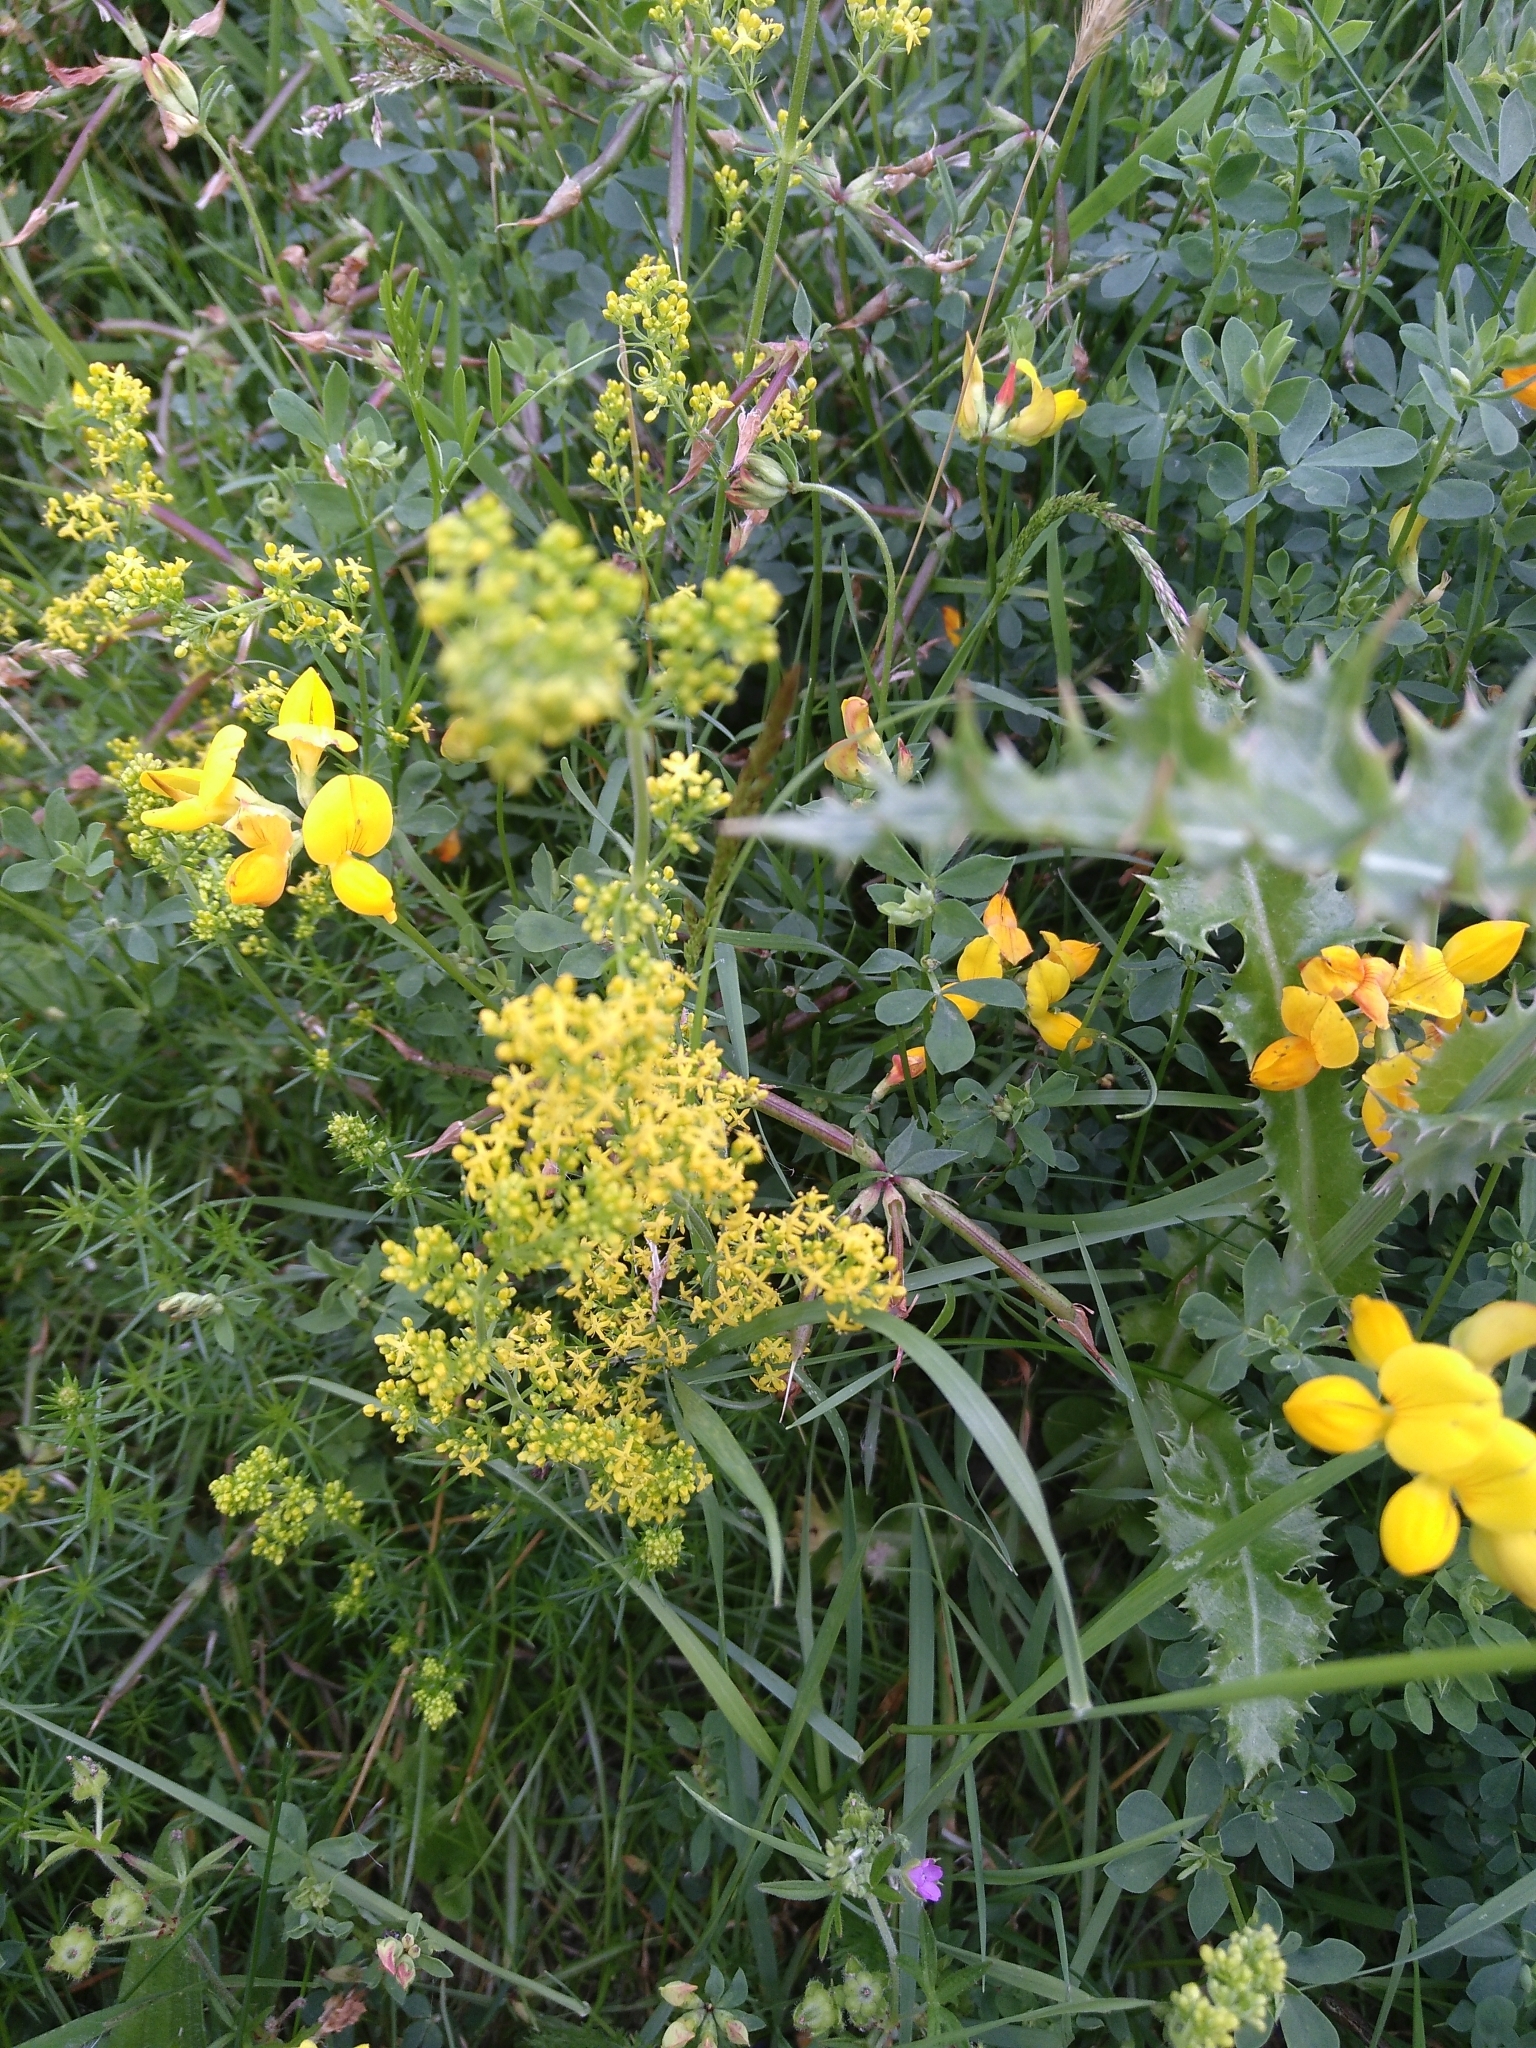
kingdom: Plantae
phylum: Tracheophyta
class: Magnoliopsida
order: Gentianales
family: Rubiaceae
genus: Galium
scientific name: Galium verum
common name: Lady's bedstraw
